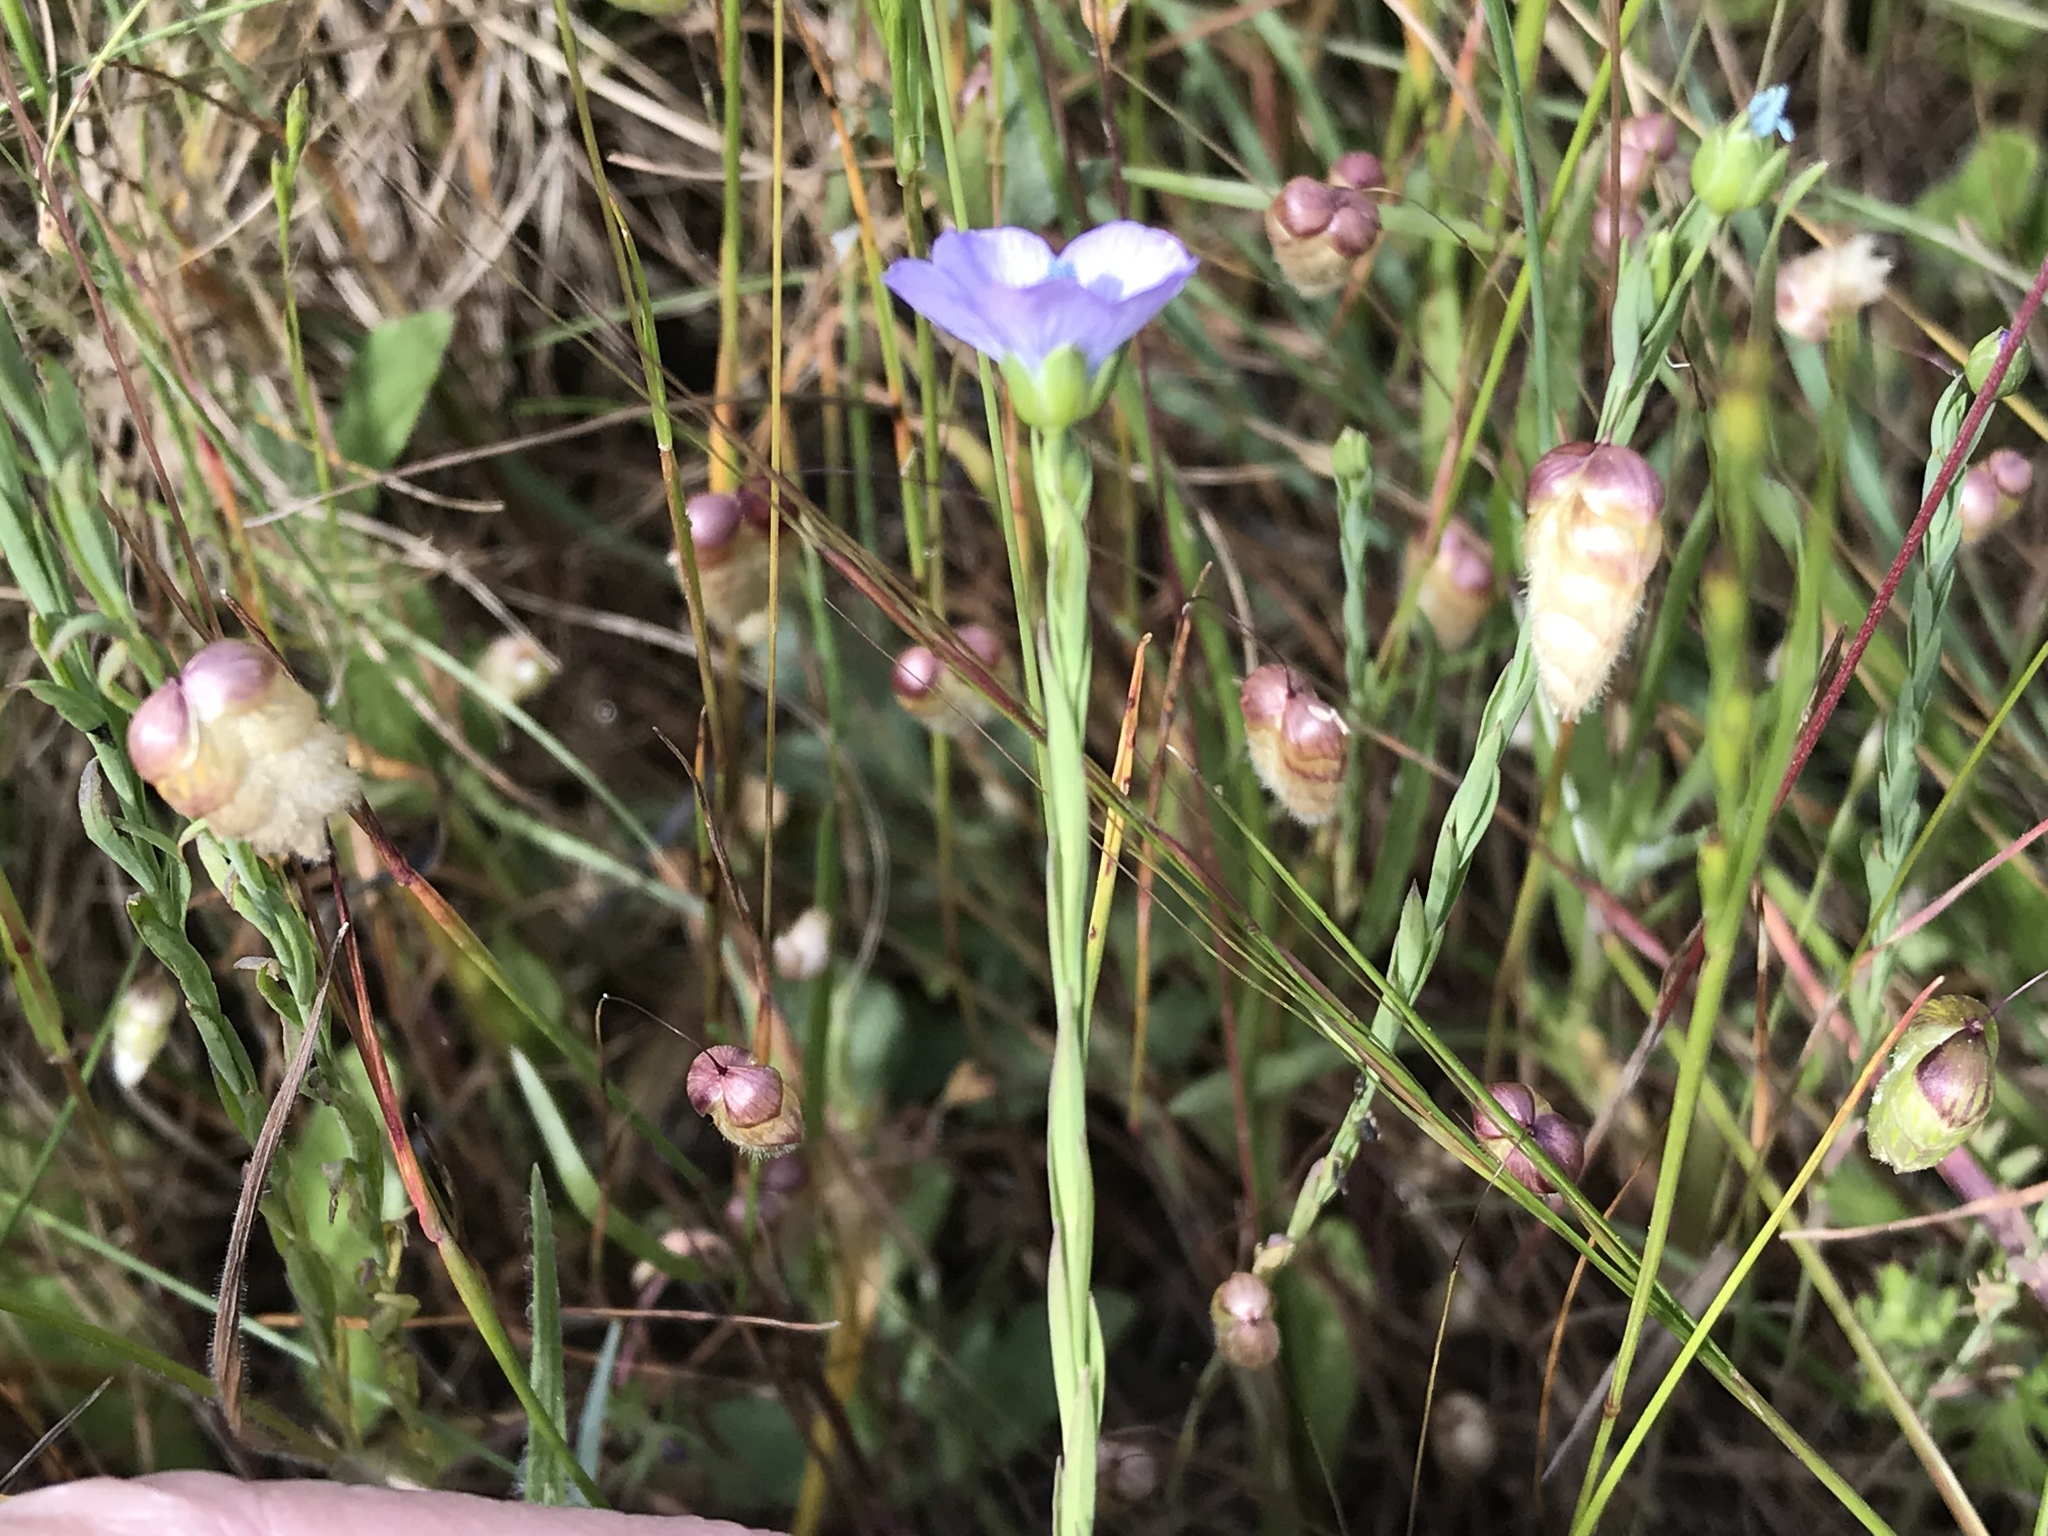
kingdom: Plantae
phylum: Tracheophyta
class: Magnoliopsida
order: Malpighiales
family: Linaceae
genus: Linum
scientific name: Linum bienne
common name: Pale flax
